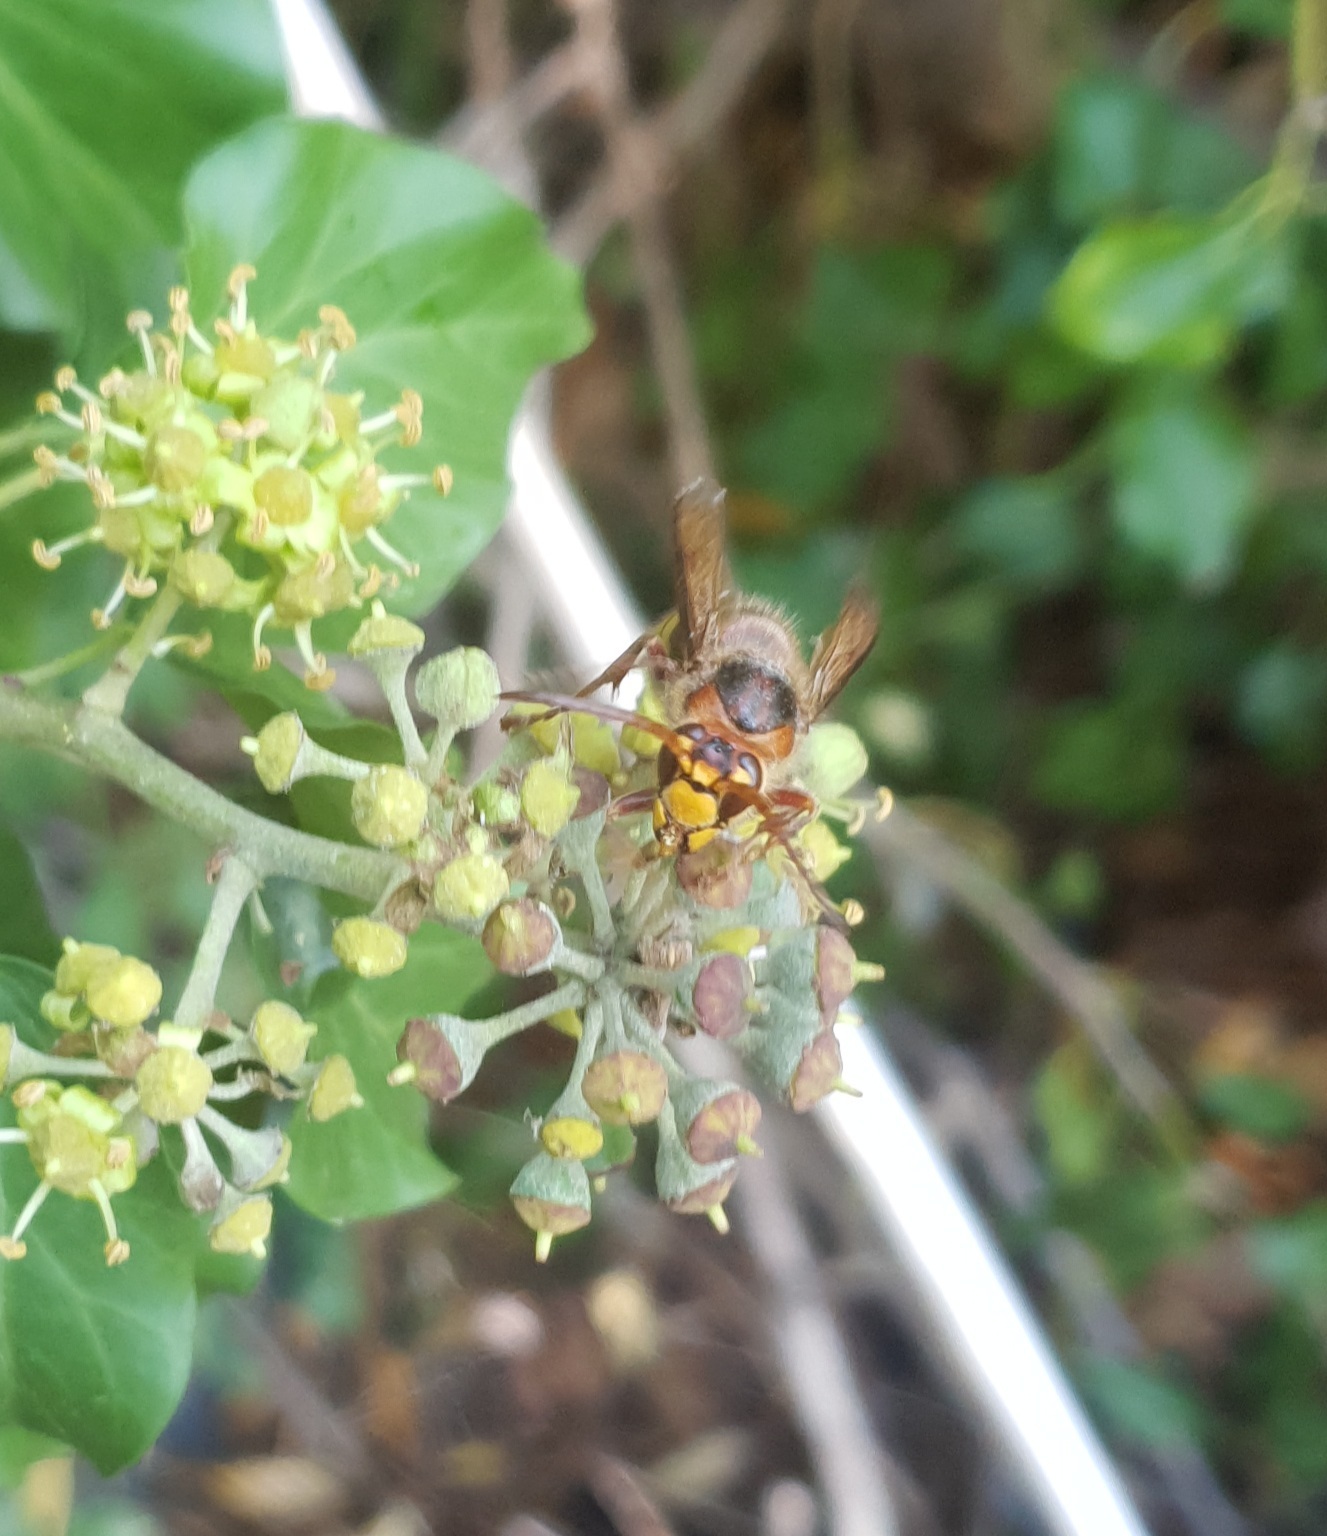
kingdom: Animalia
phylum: Arthropoda
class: Insecta
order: Hymenoptera
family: Vespidae
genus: Vespa
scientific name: Vespa crabro
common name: Hornet
